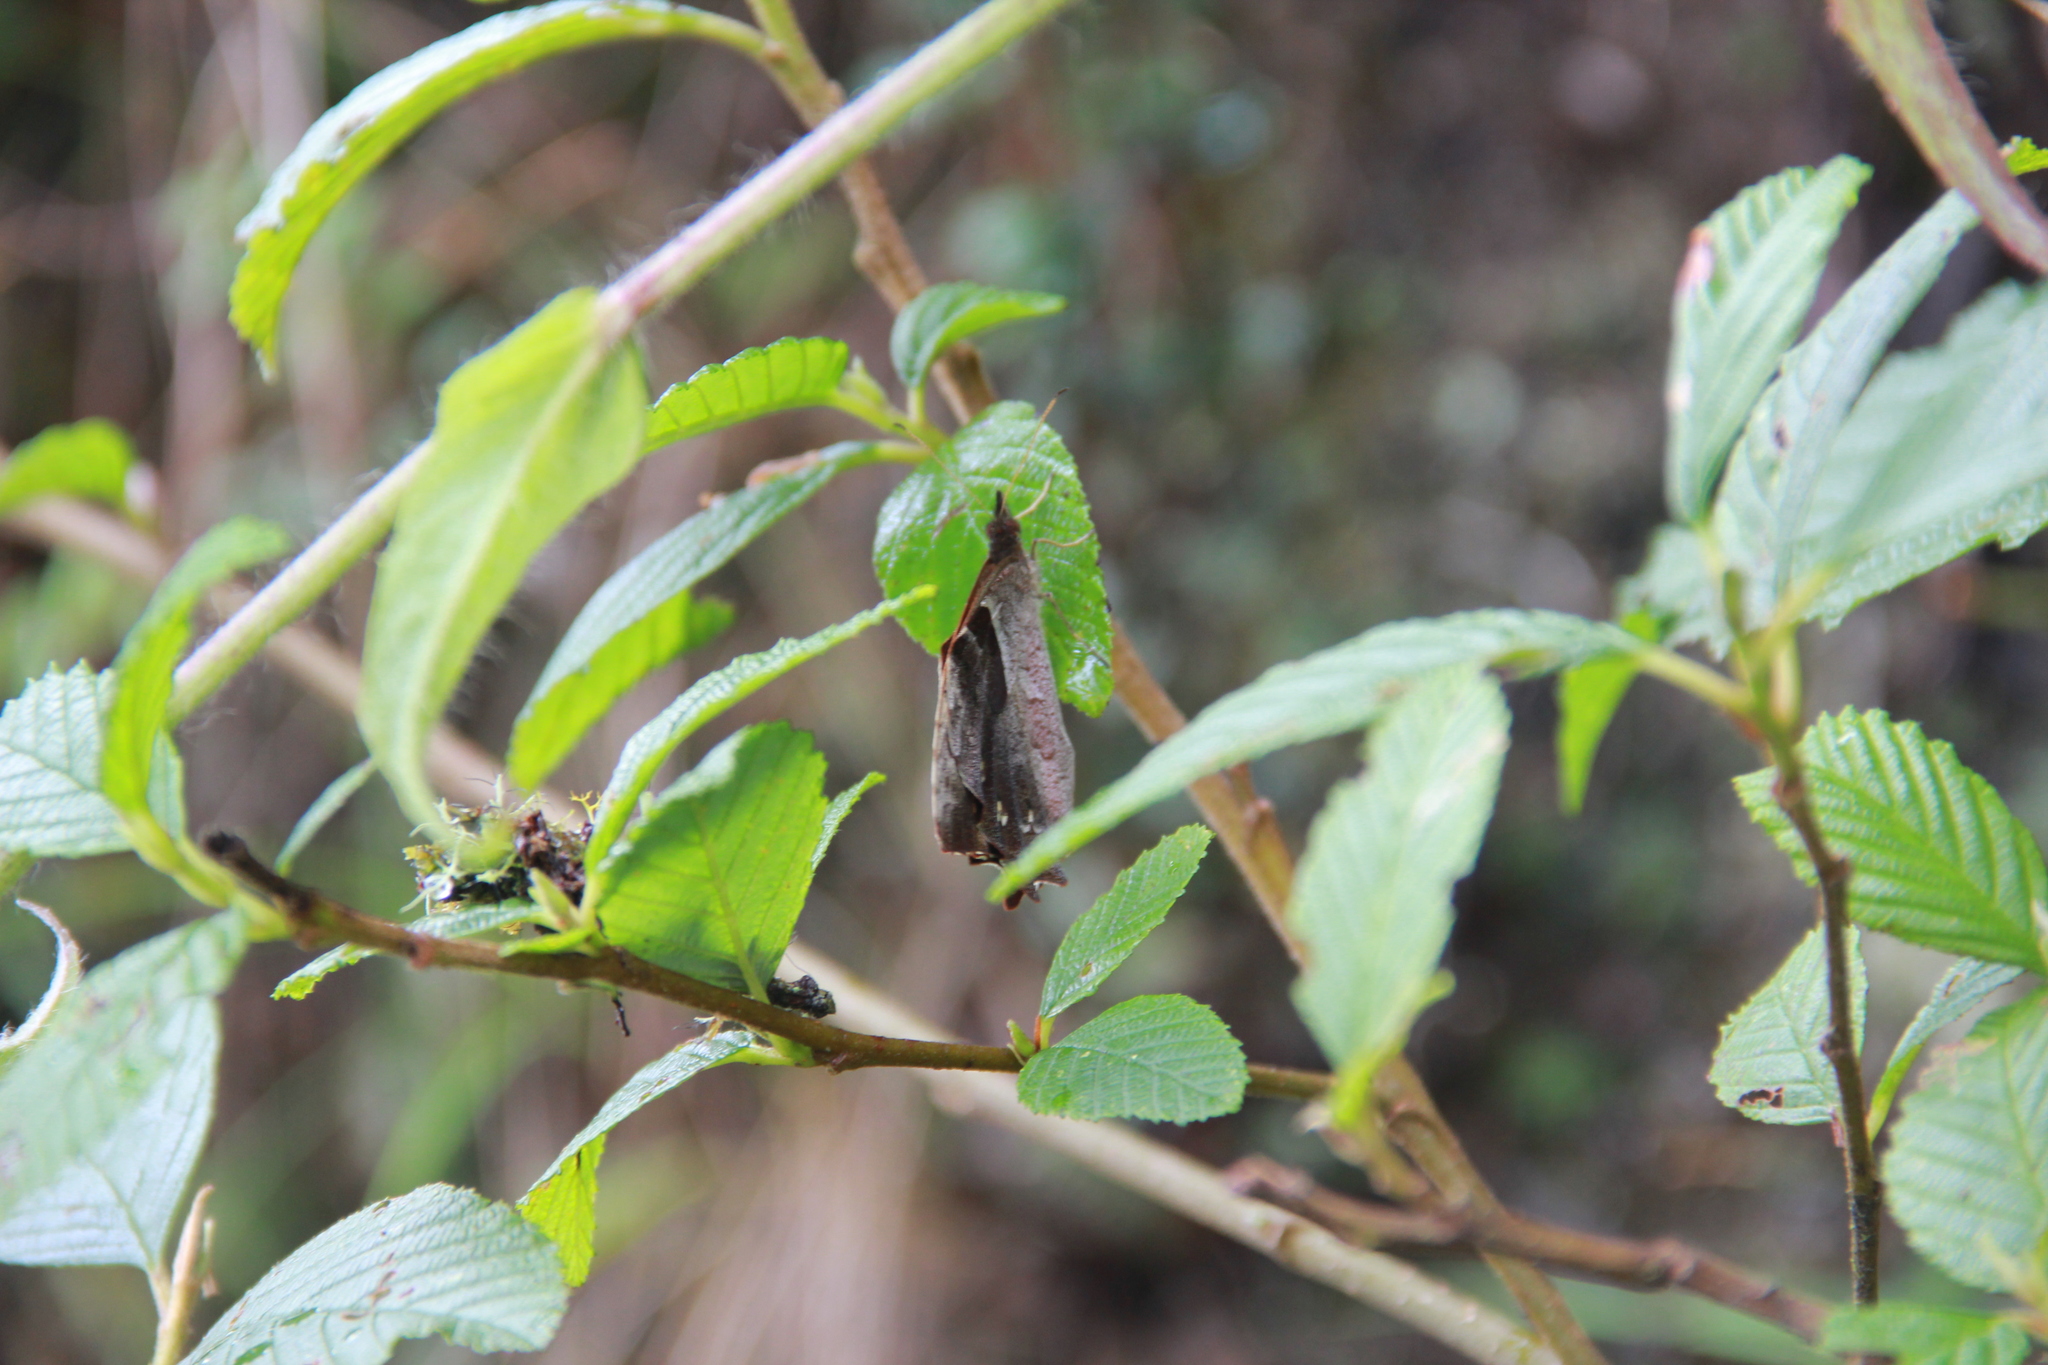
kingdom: Animalia
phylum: Arthropoda
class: Insecta
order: Lepidoptera
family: Nymphalidae
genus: Lasiophila
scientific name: Lasiophila orbifera
